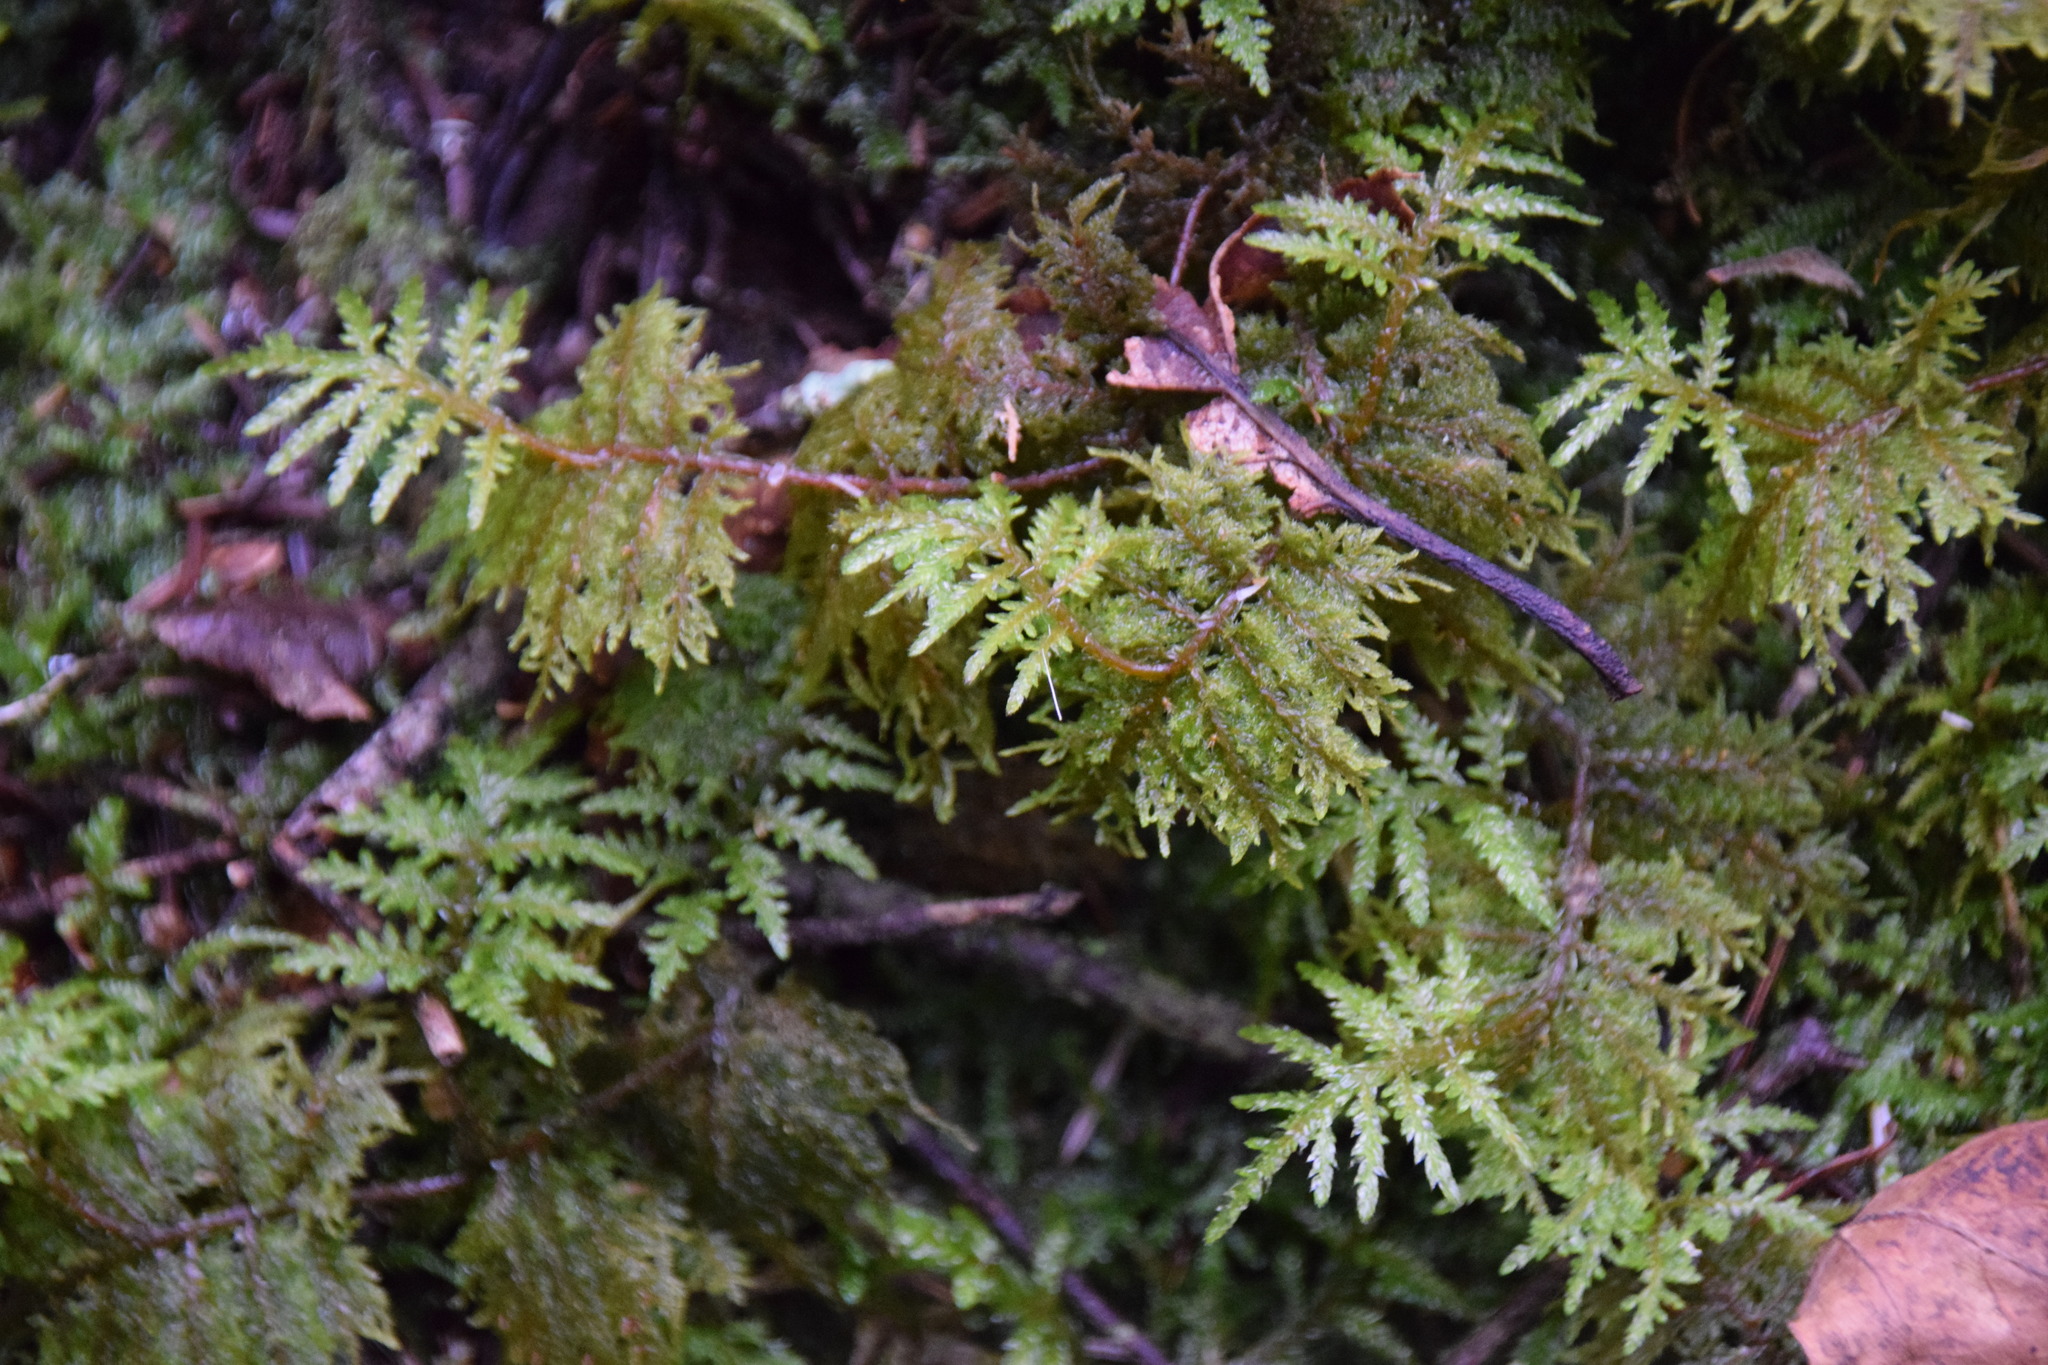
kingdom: Plantae
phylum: Bryophyta
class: Bryopsida
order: Hypnales
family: Hylocomiaceae
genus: Hylocomium
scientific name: Hylocomium splendens
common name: Stairstep moss
